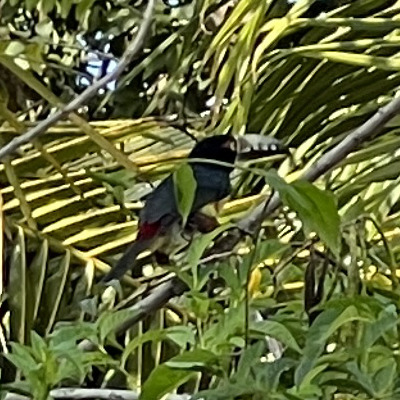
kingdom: Animalia
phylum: Chordata
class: Aves
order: Piciformes
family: Ramphastidae
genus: Pteroglossus
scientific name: Pteroglossus torquatus
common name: Collared aracari
